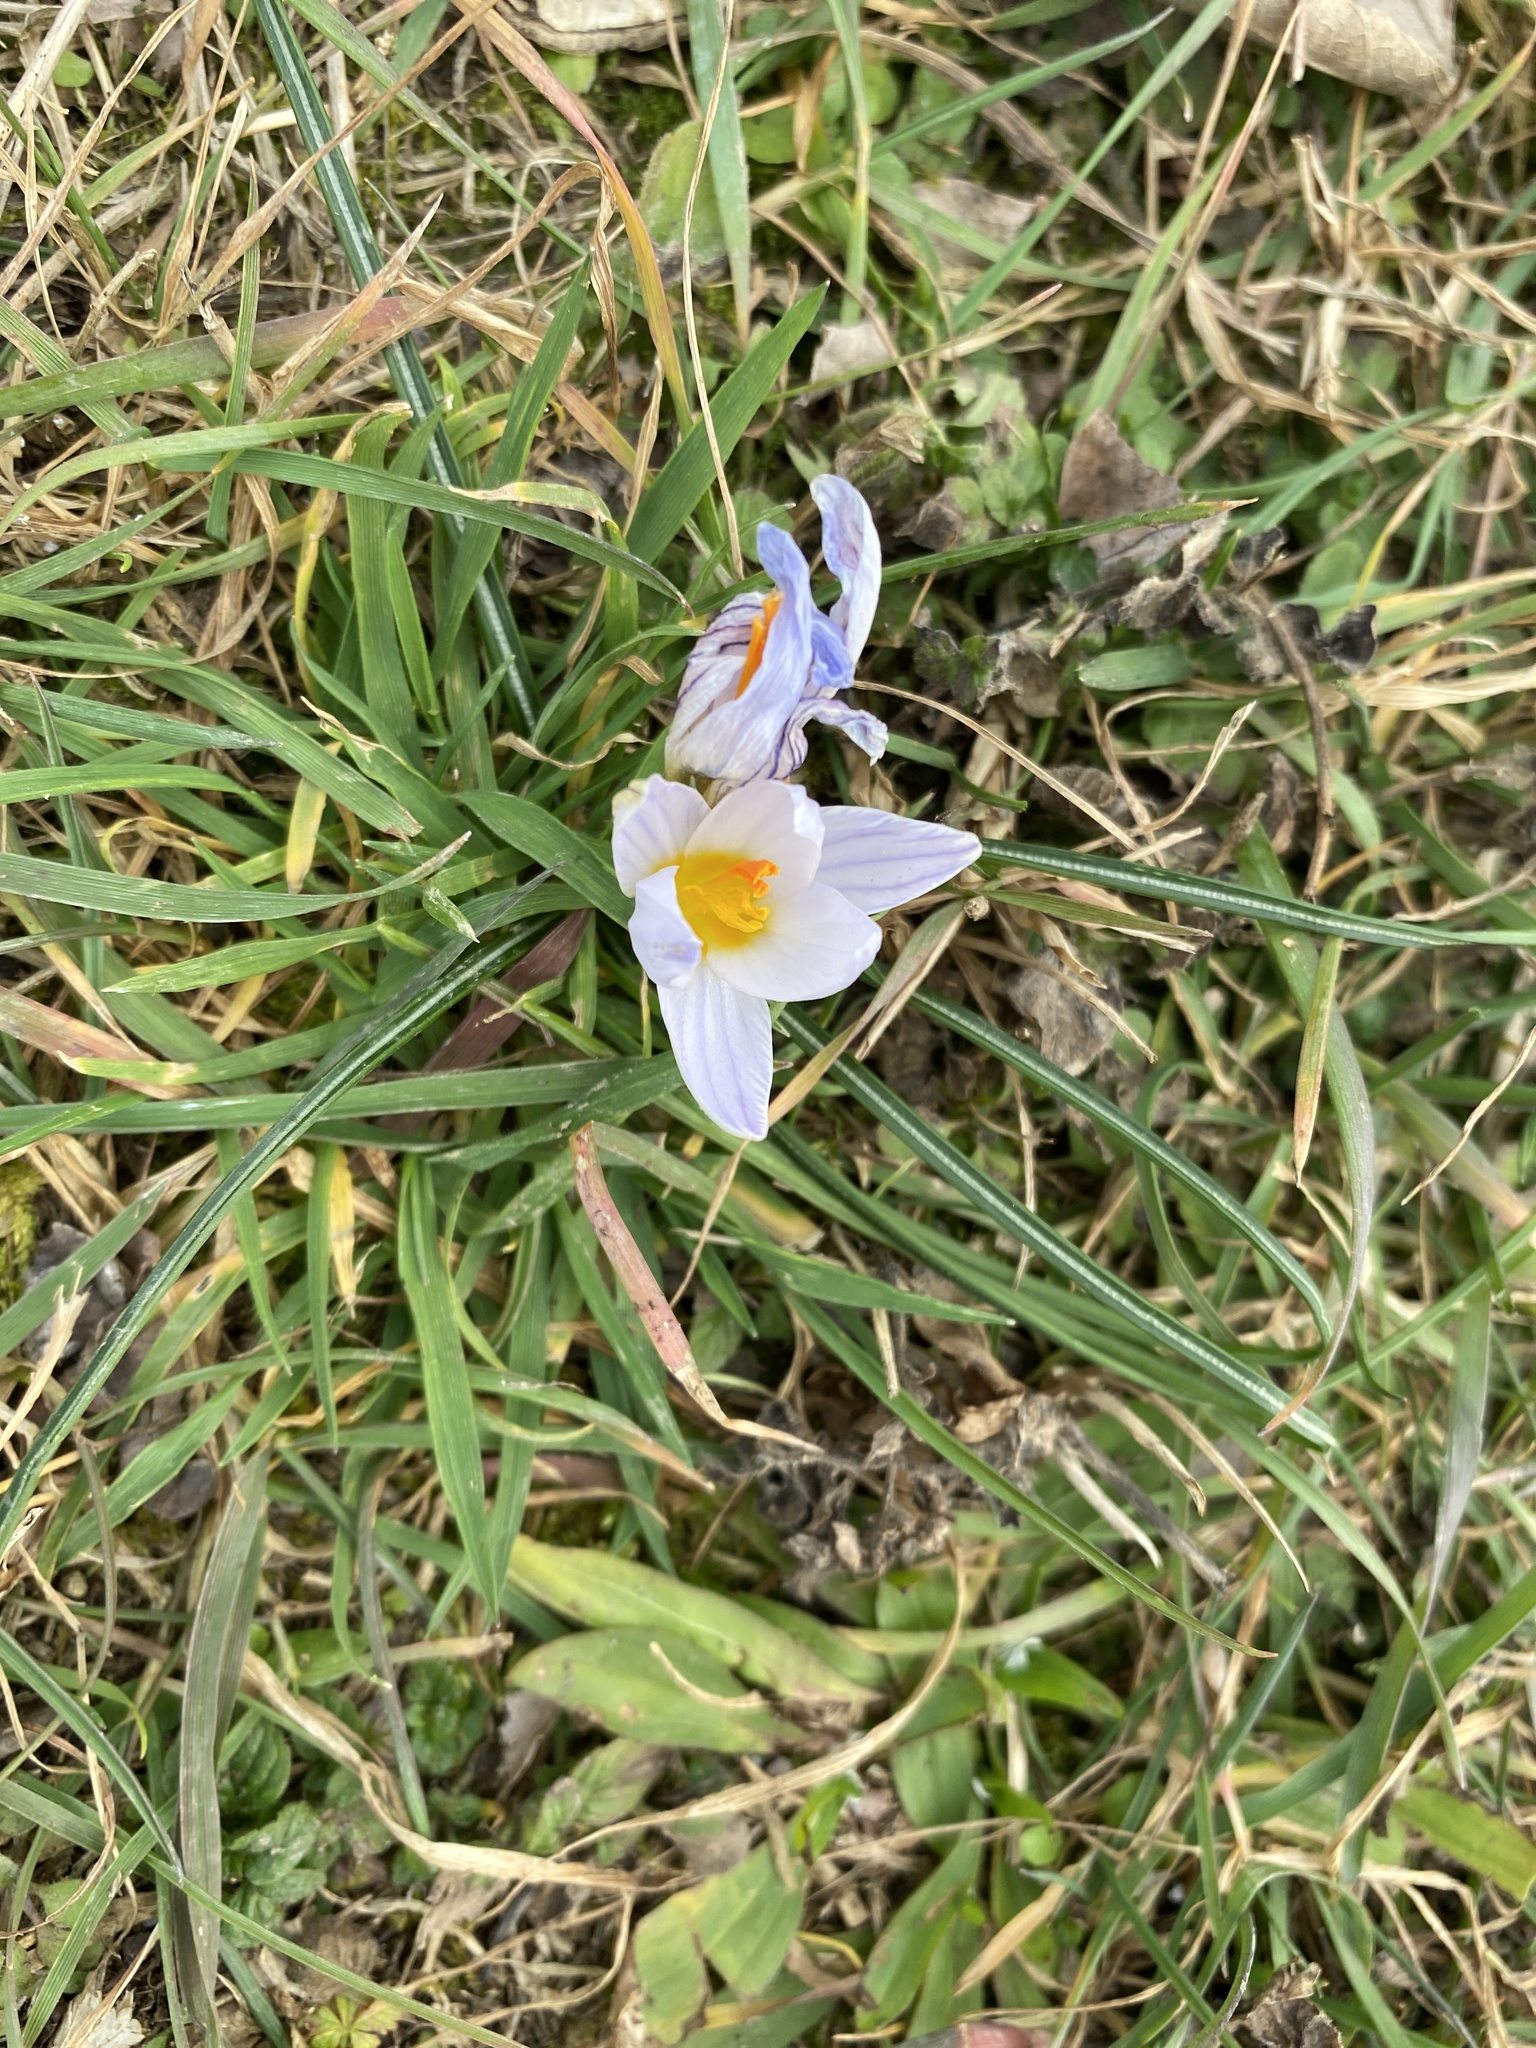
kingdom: Plantae
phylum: Tracheophyta
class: Liliopsida
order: Asparagales
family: Iridaceae
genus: Crocus
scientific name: Crocus biflorus
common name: Silvery crocus
